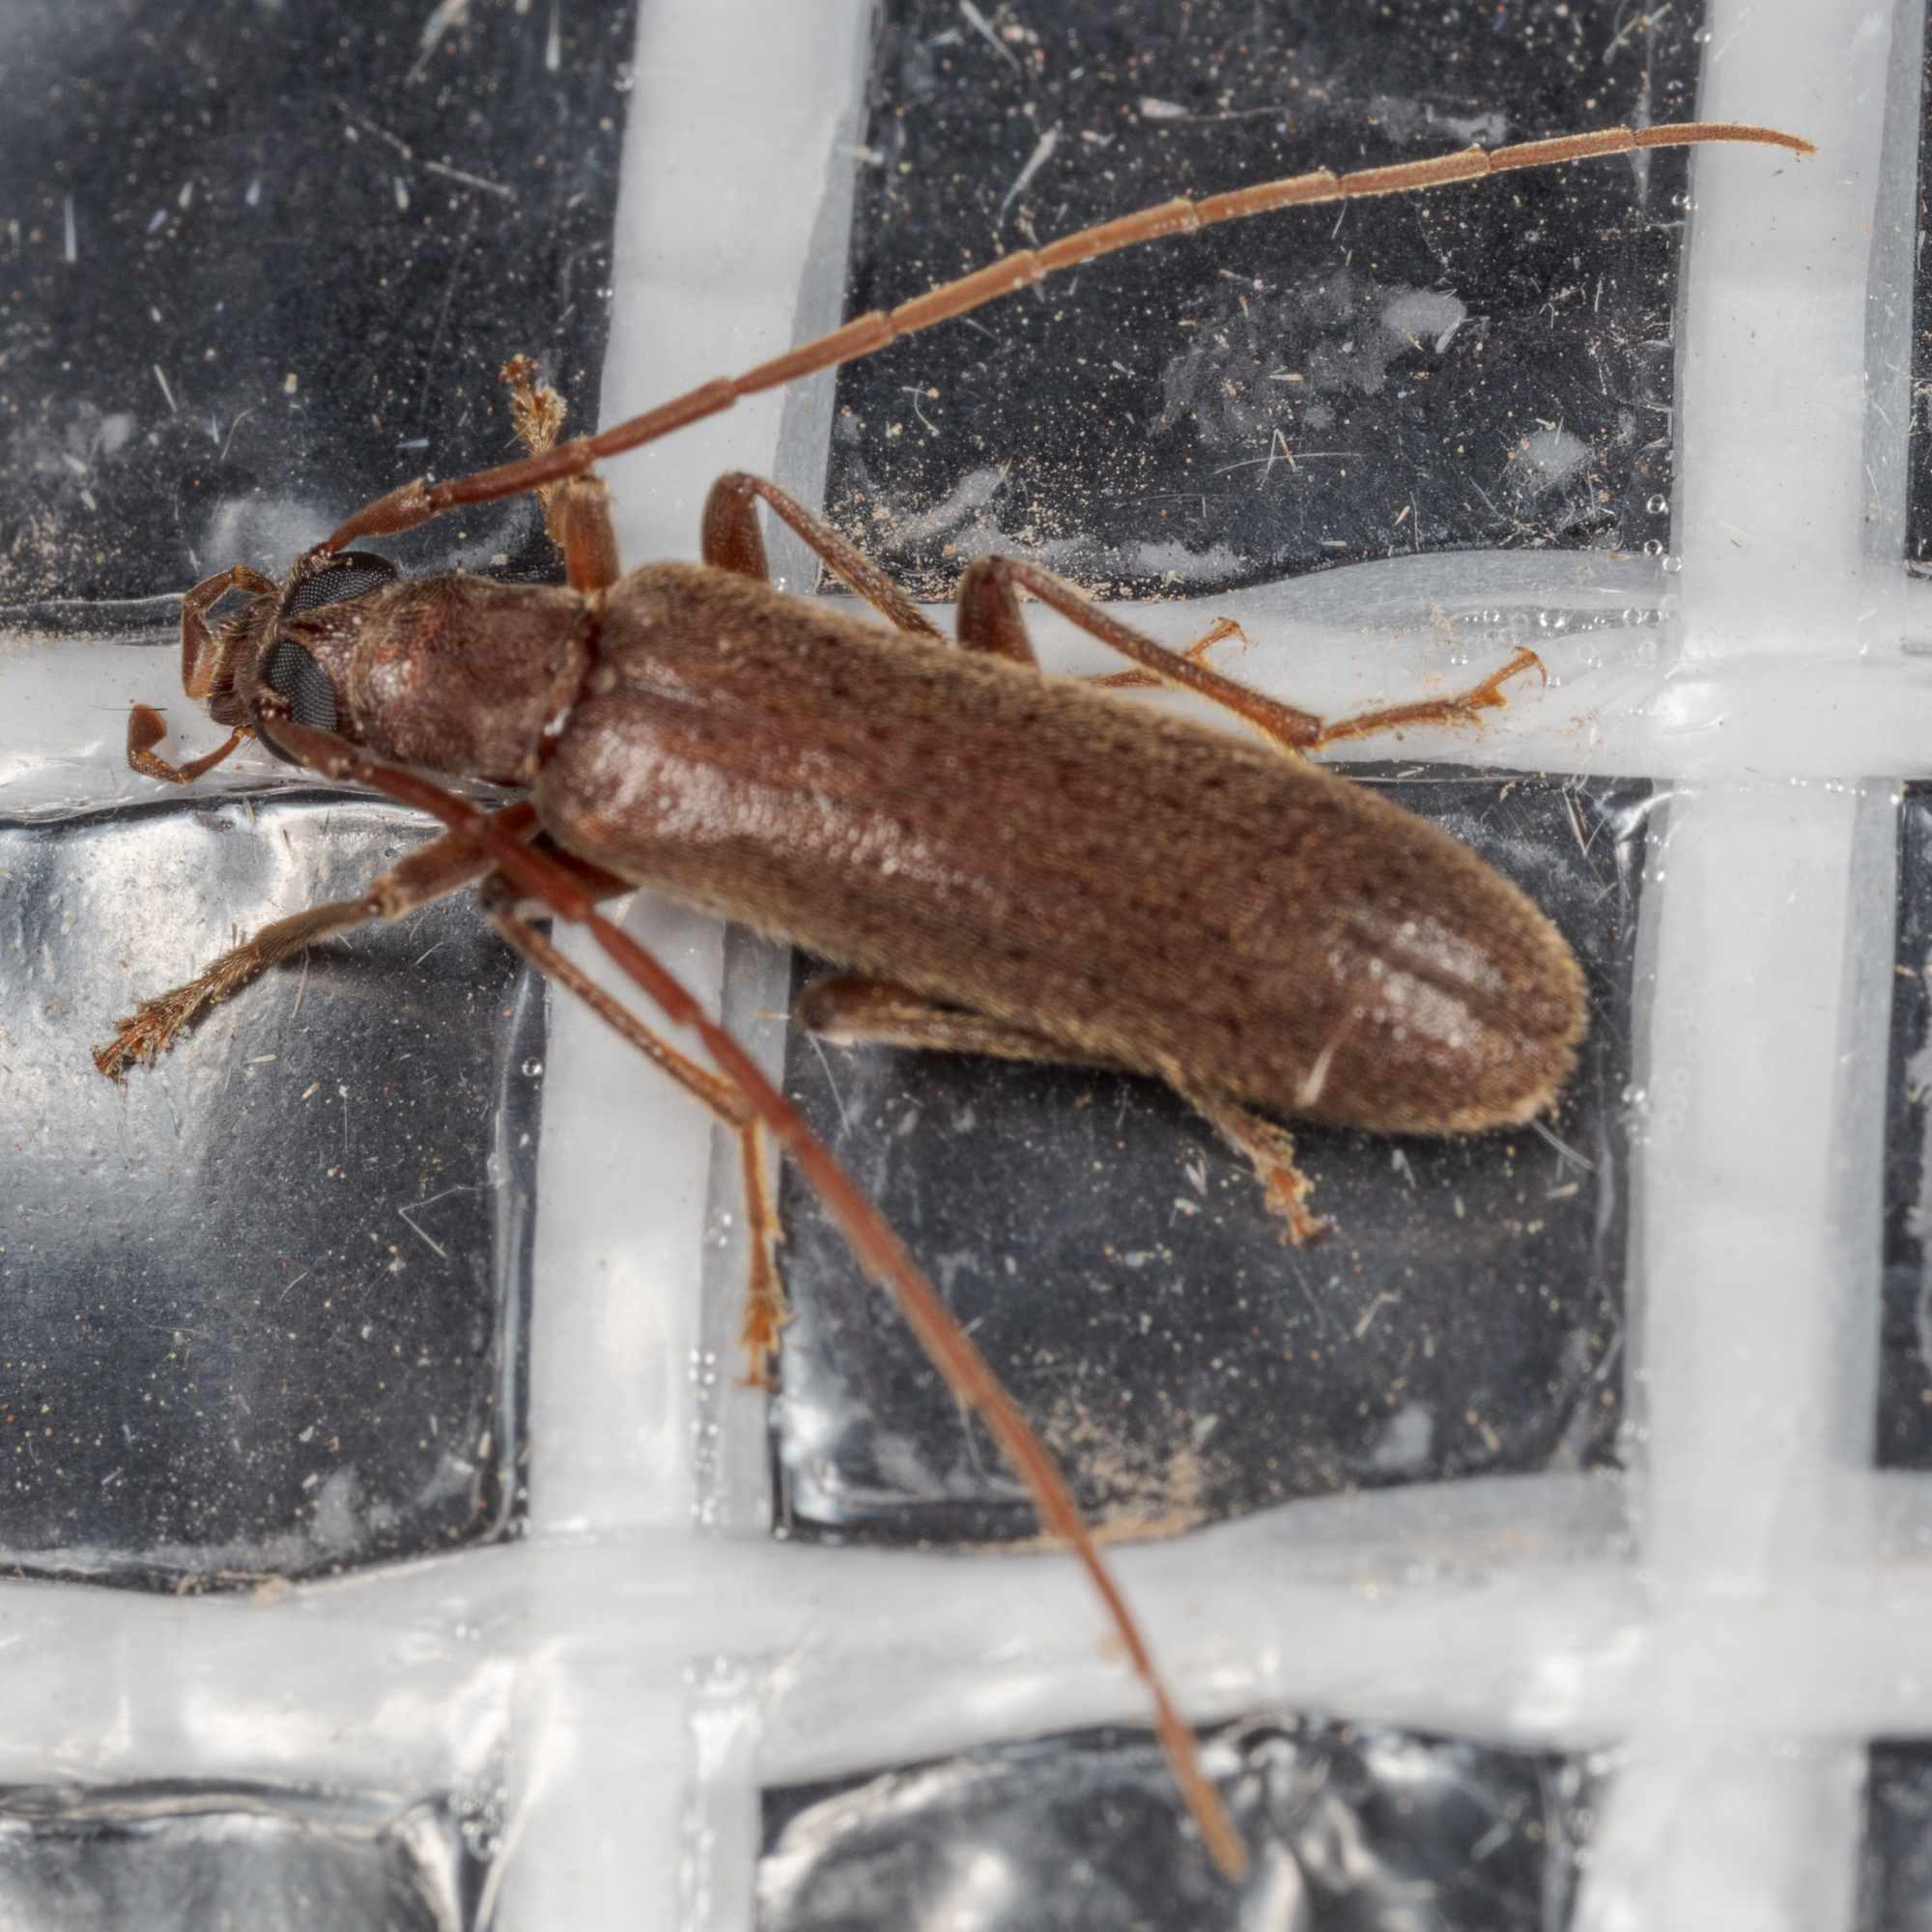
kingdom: Animalia
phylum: Arthropoda
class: Insecta
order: Coleoptera
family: Oedemeridae
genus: Sparedrus
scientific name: Sparedrus aspersus
